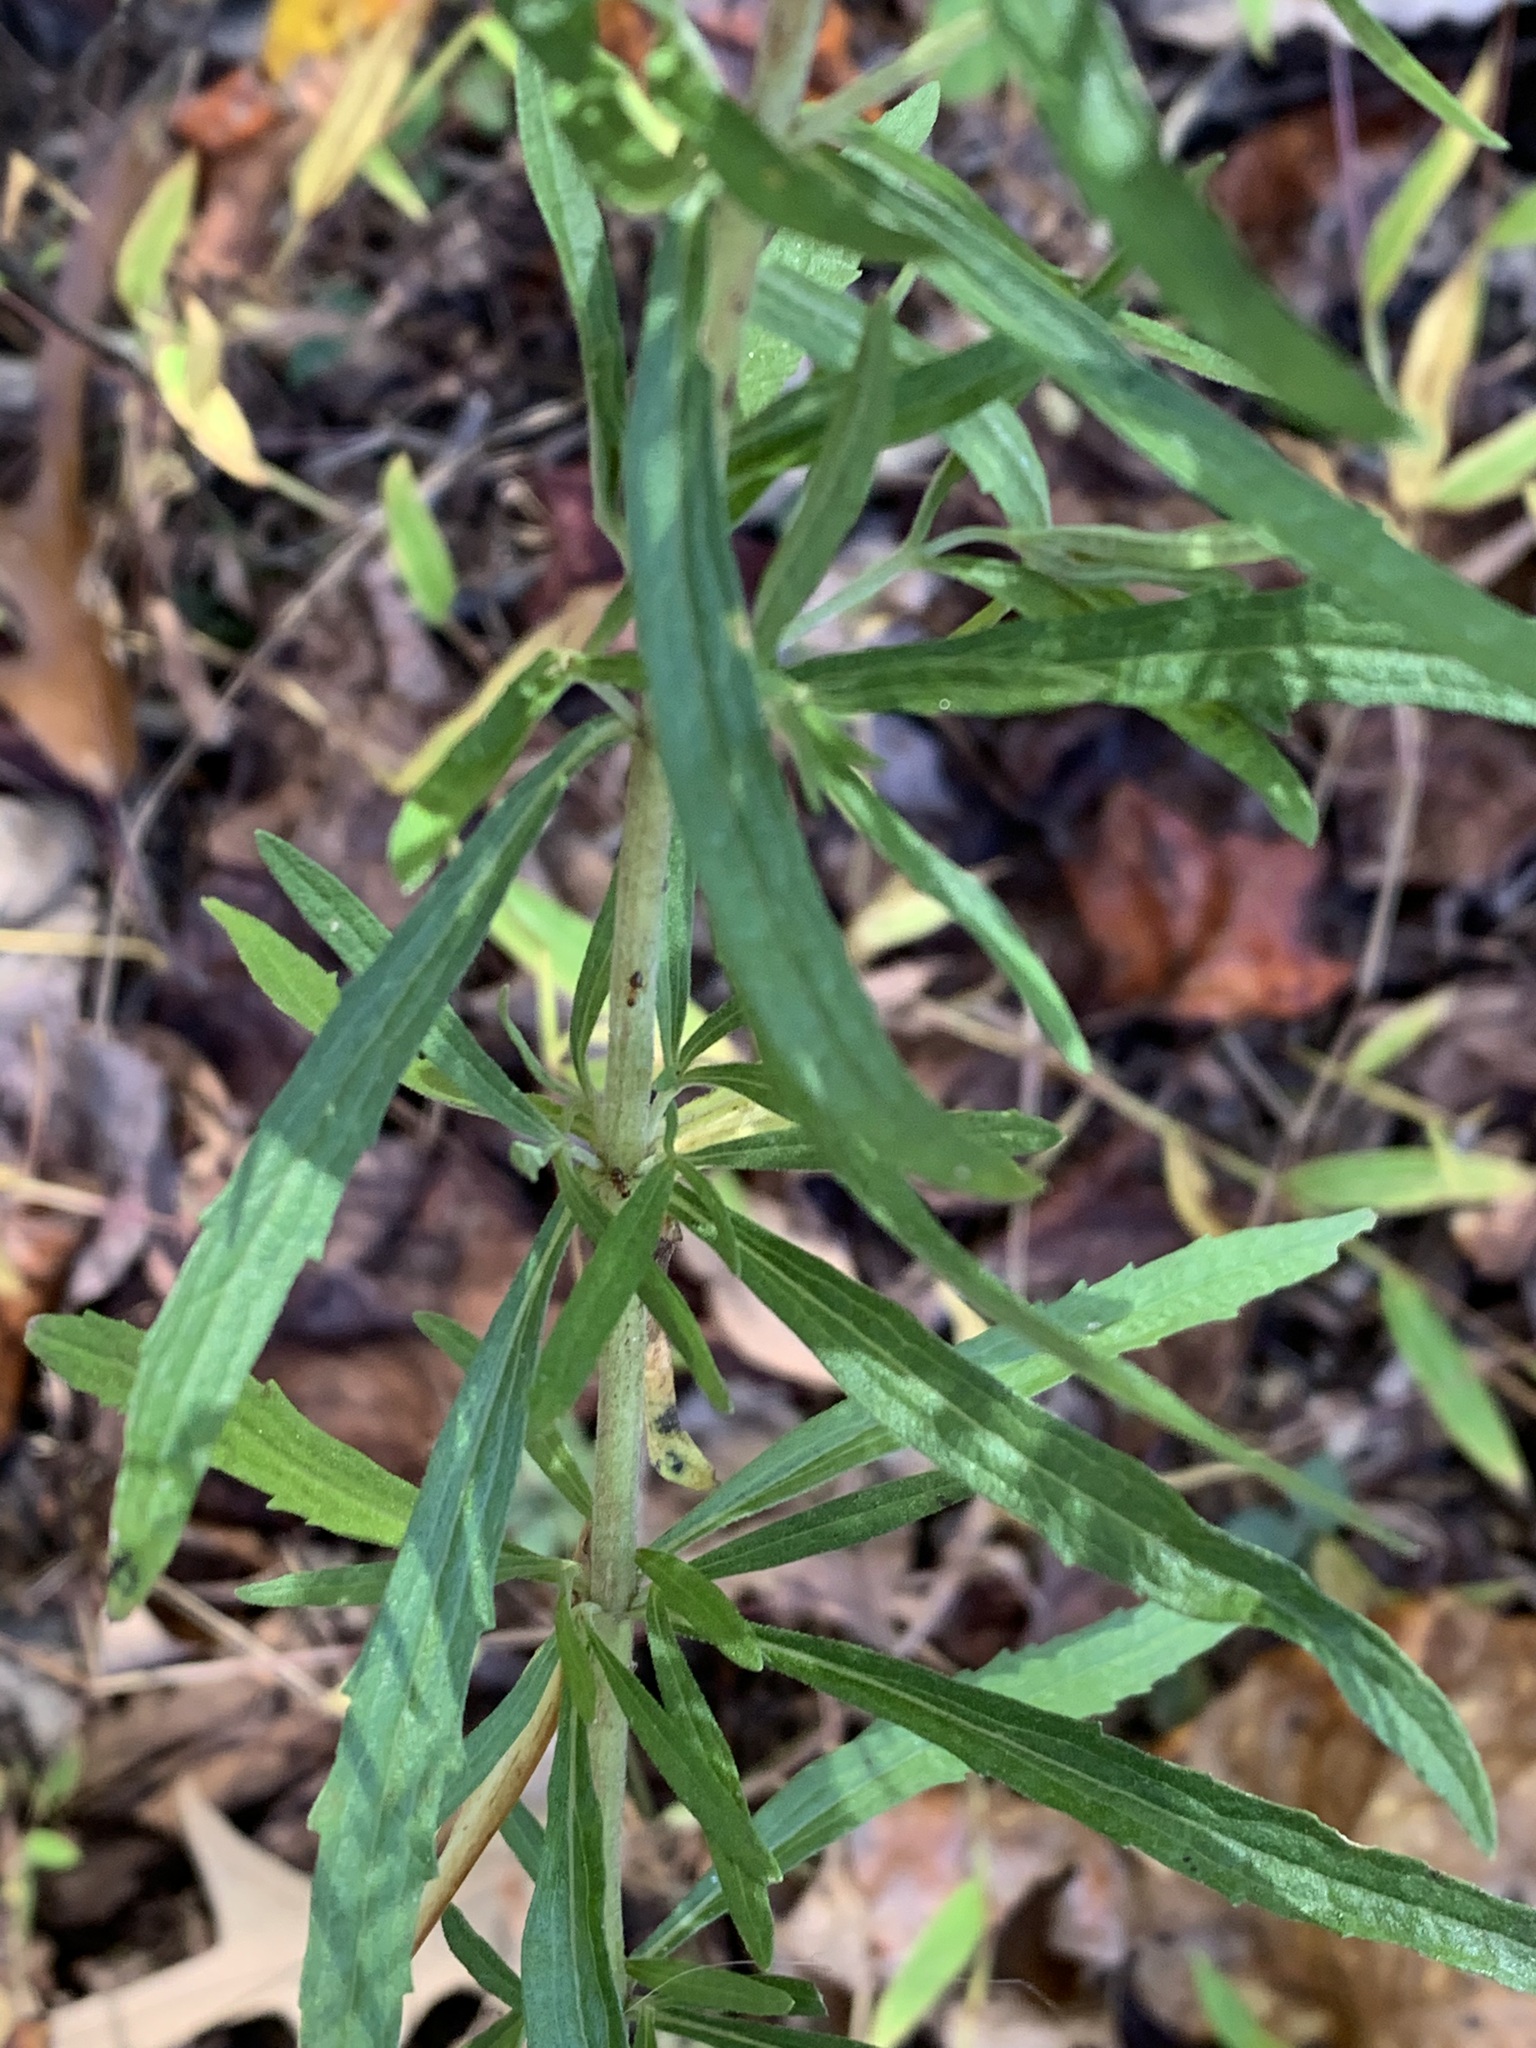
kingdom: Plantae
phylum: Tracheophyta
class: Magnoliopsida
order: Asterales
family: Asteraceae
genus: Eupatorium
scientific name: Eupatorium torreyanum
